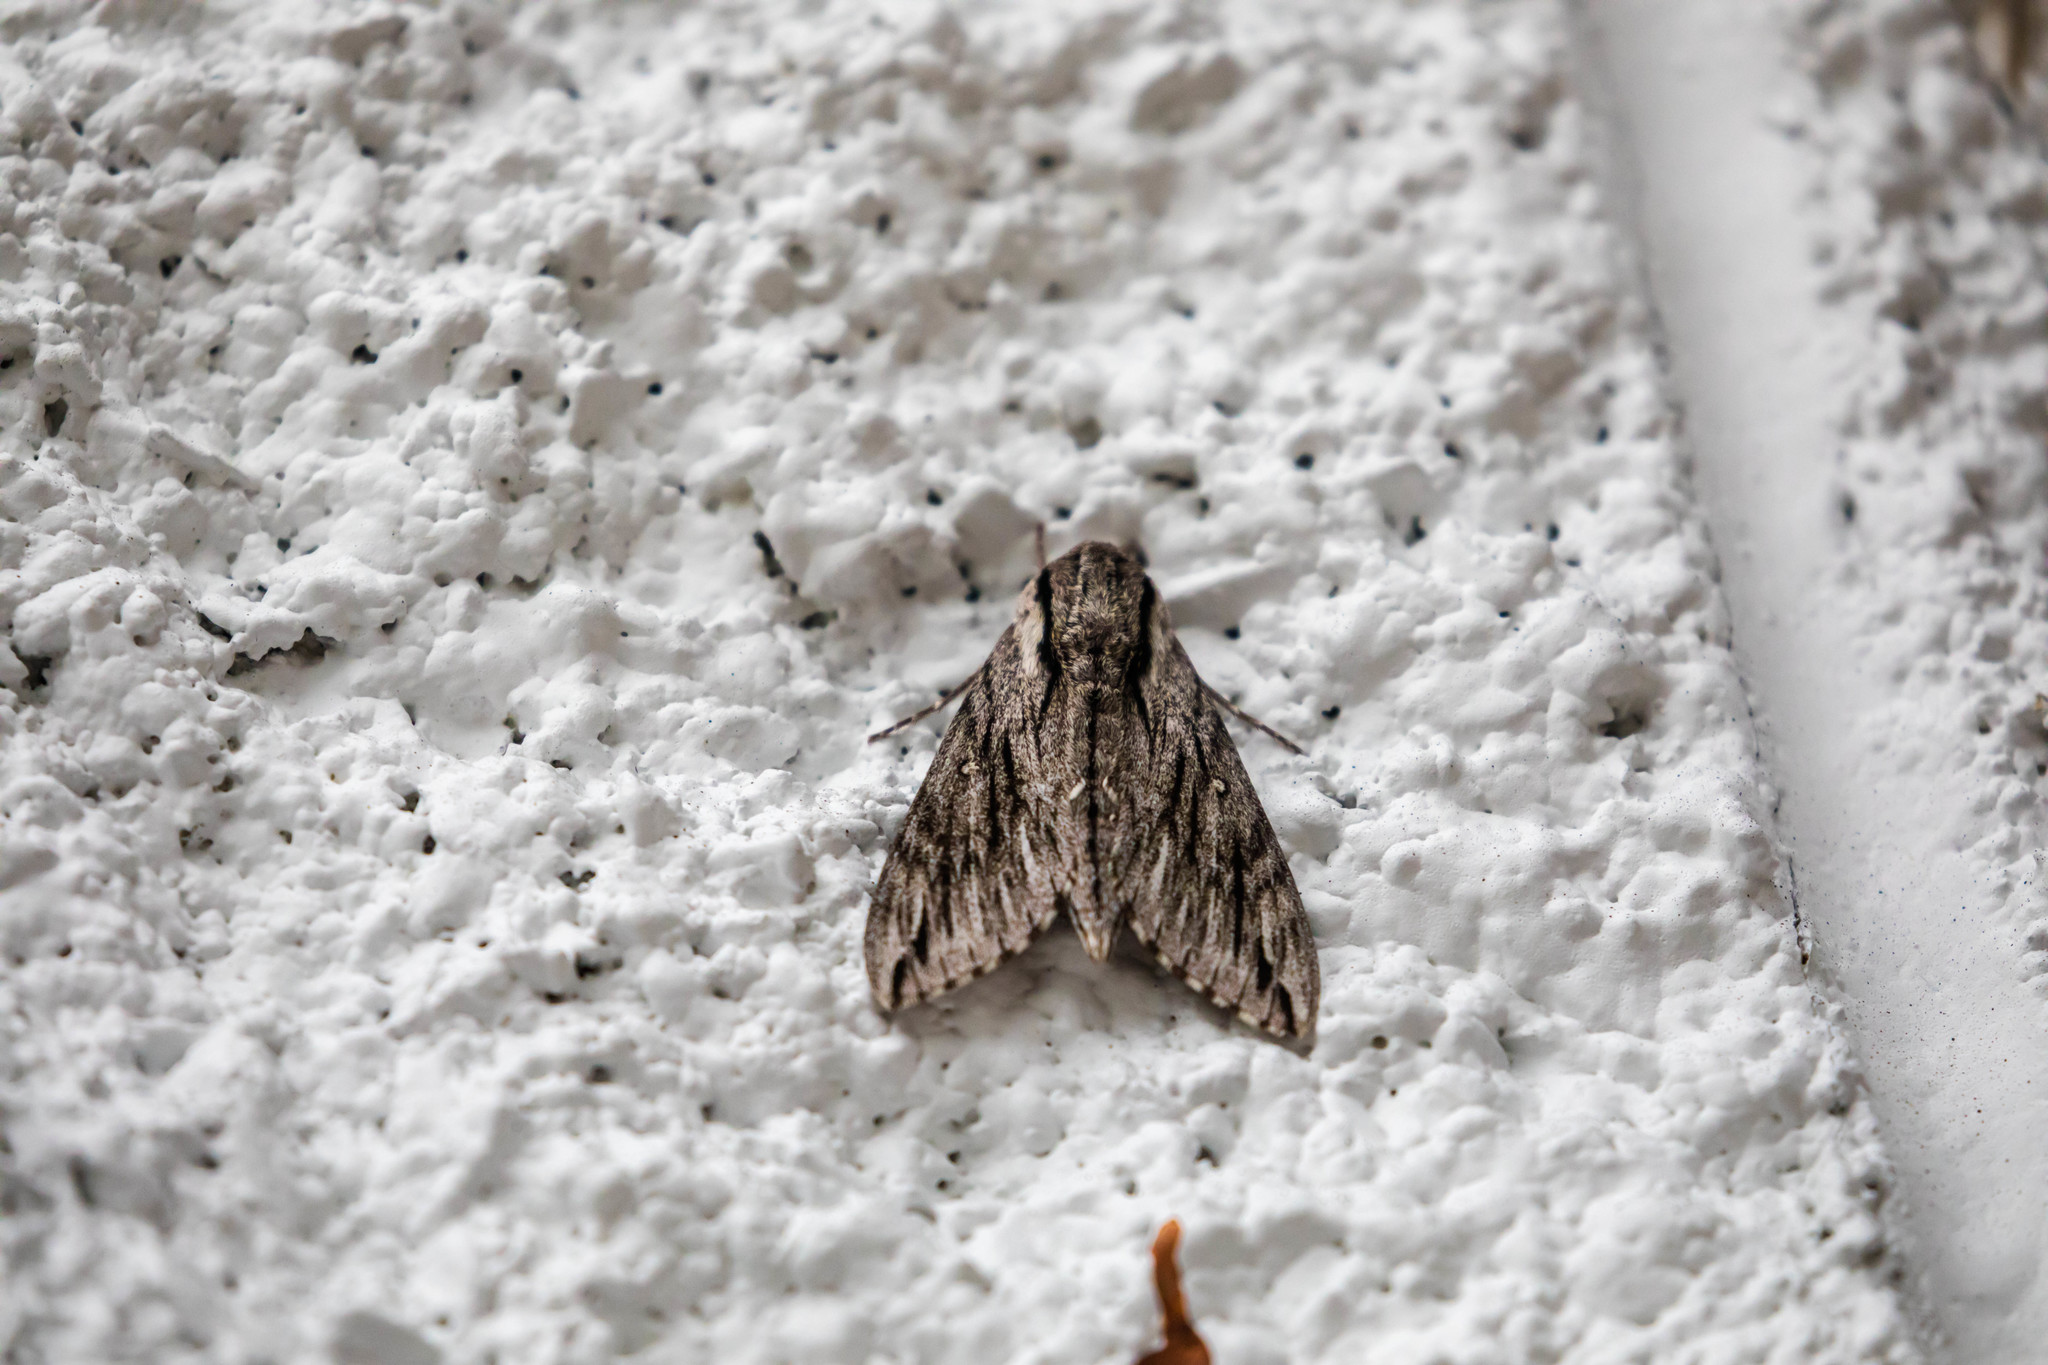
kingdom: Animalia
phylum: Arthropoda
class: Insecta
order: Lepidoptera
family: Sphingidae
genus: Paratrea
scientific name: Paratrea plebeja
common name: Plebian sphinx
